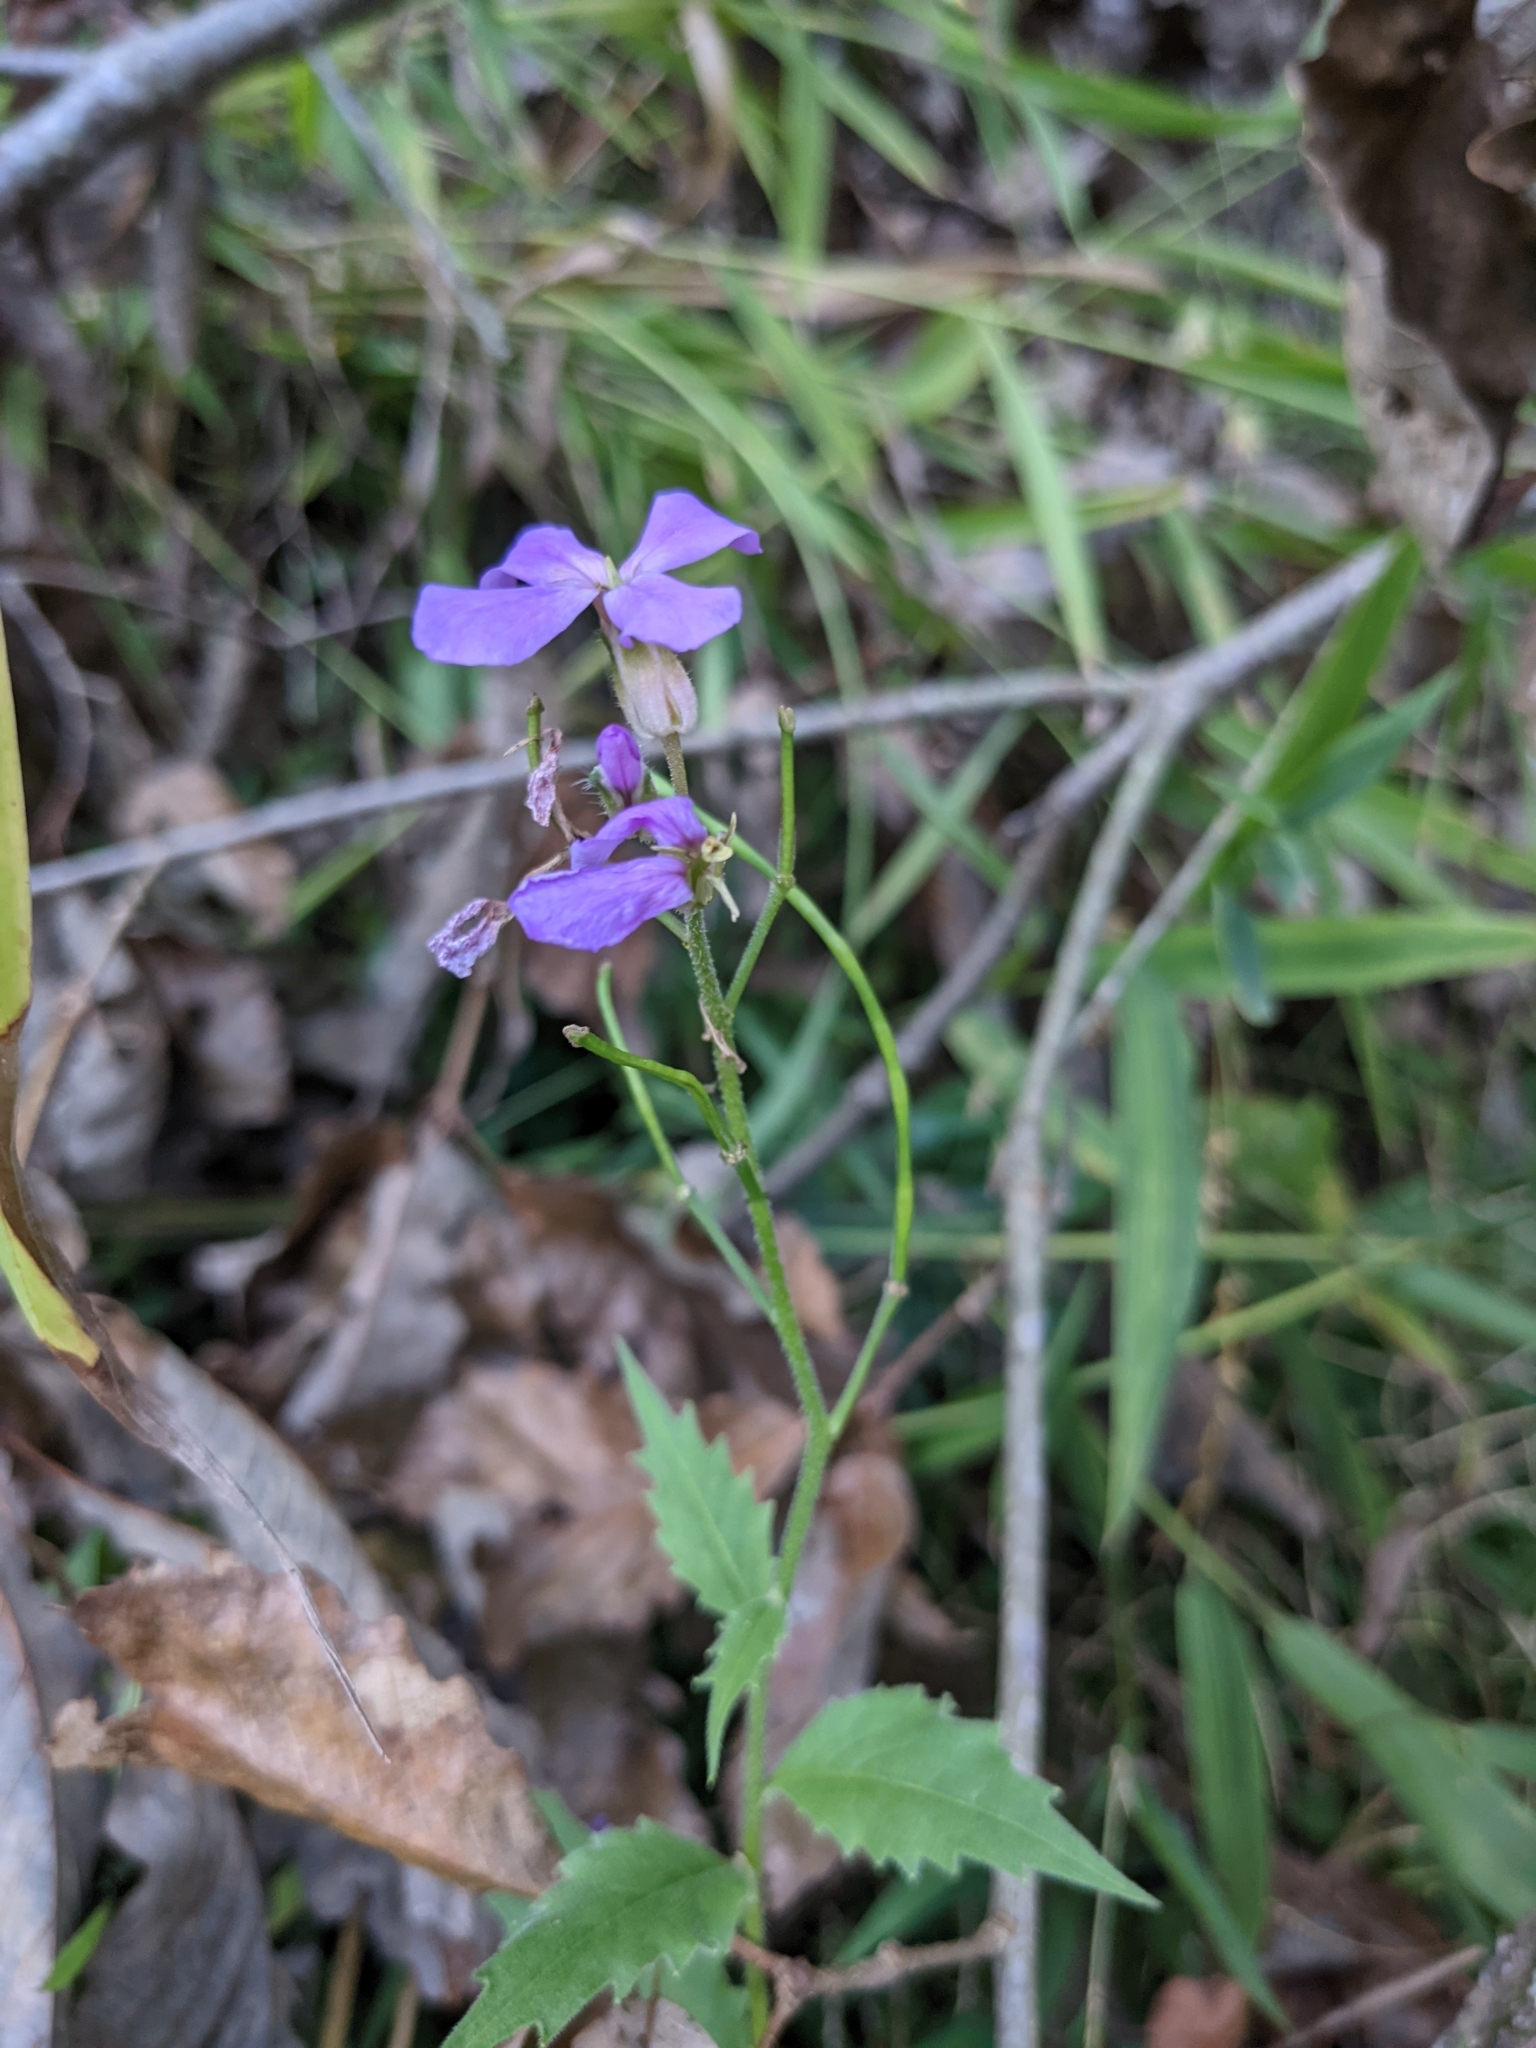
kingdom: Plantae
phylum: Tracheophyta
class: Magnoliopsida
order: Brassicales
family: Brassicaceae
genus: Hesperis
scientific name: Hesperis matronalis
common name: Dame's-violet
